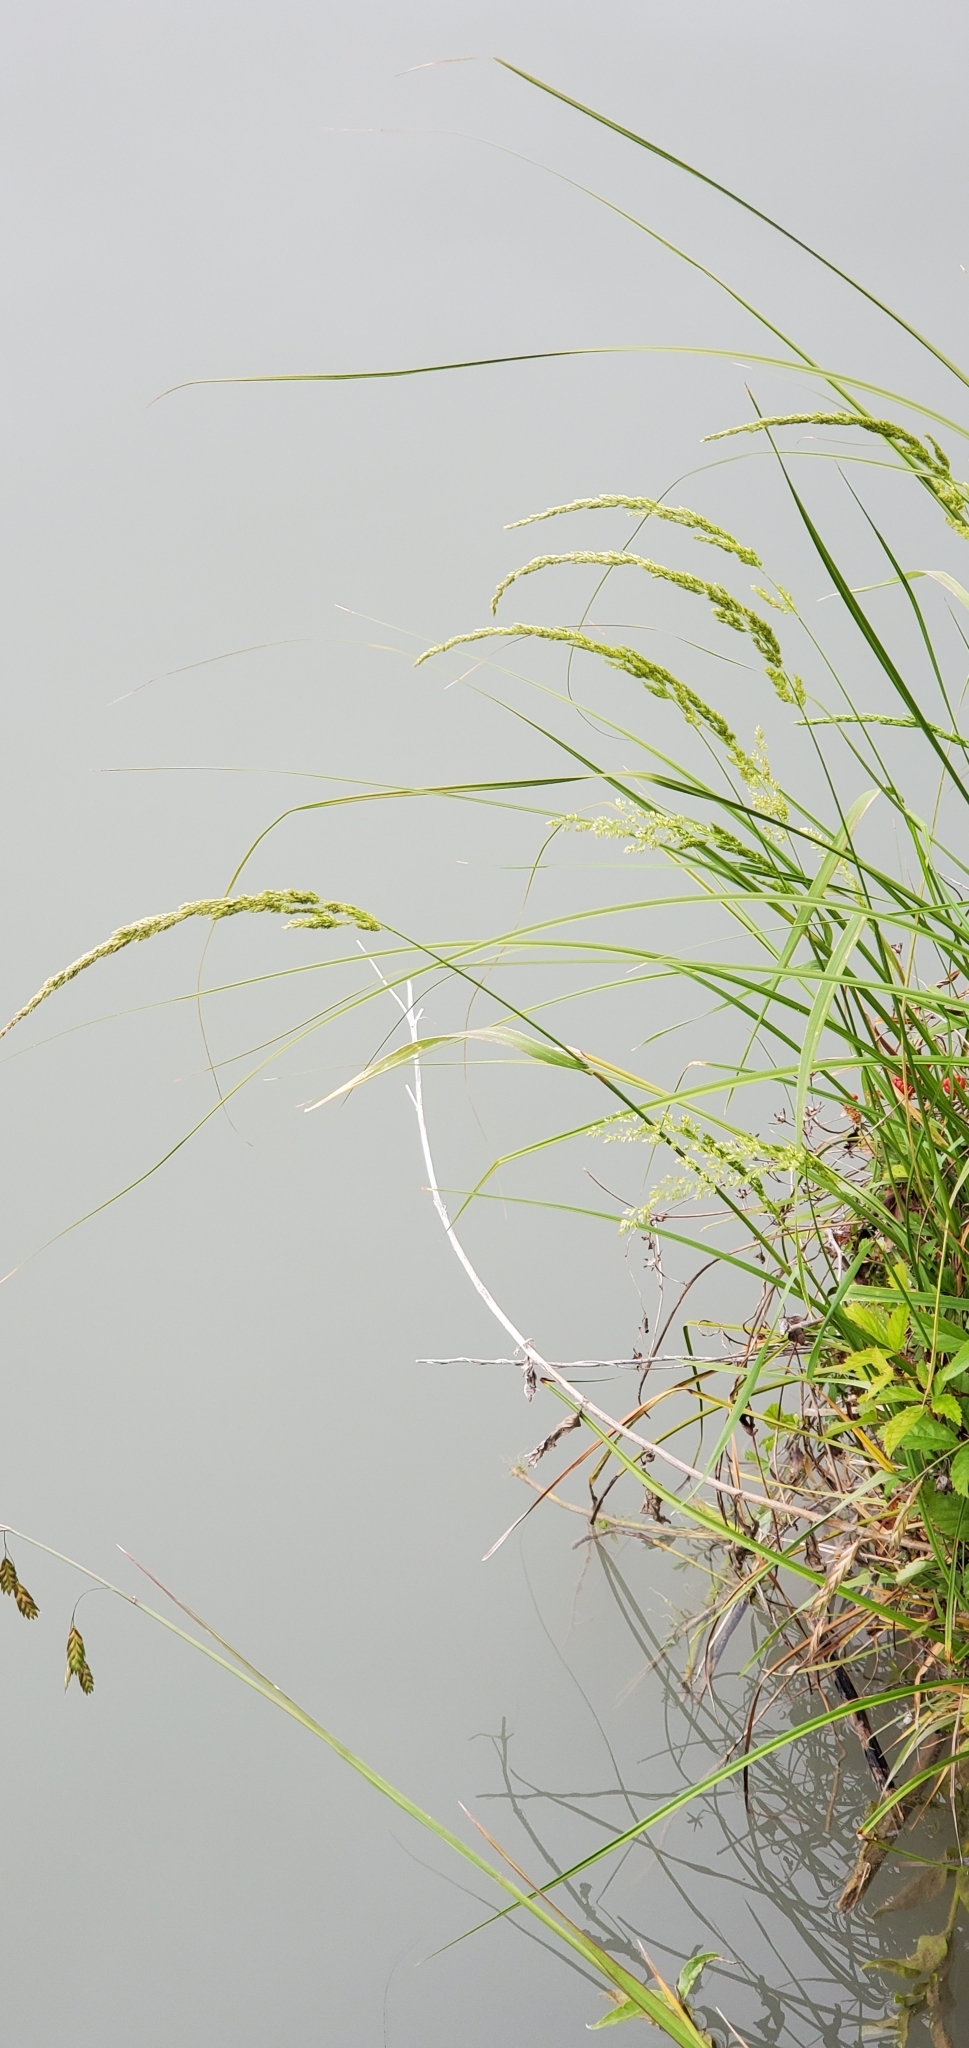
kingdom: Plantae
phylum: Tracheophyta
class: Liliopsida
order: Poales
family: Poaceae
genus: Sphenopholis
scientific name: Sphenopholis obtusata
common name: Prairie grass
